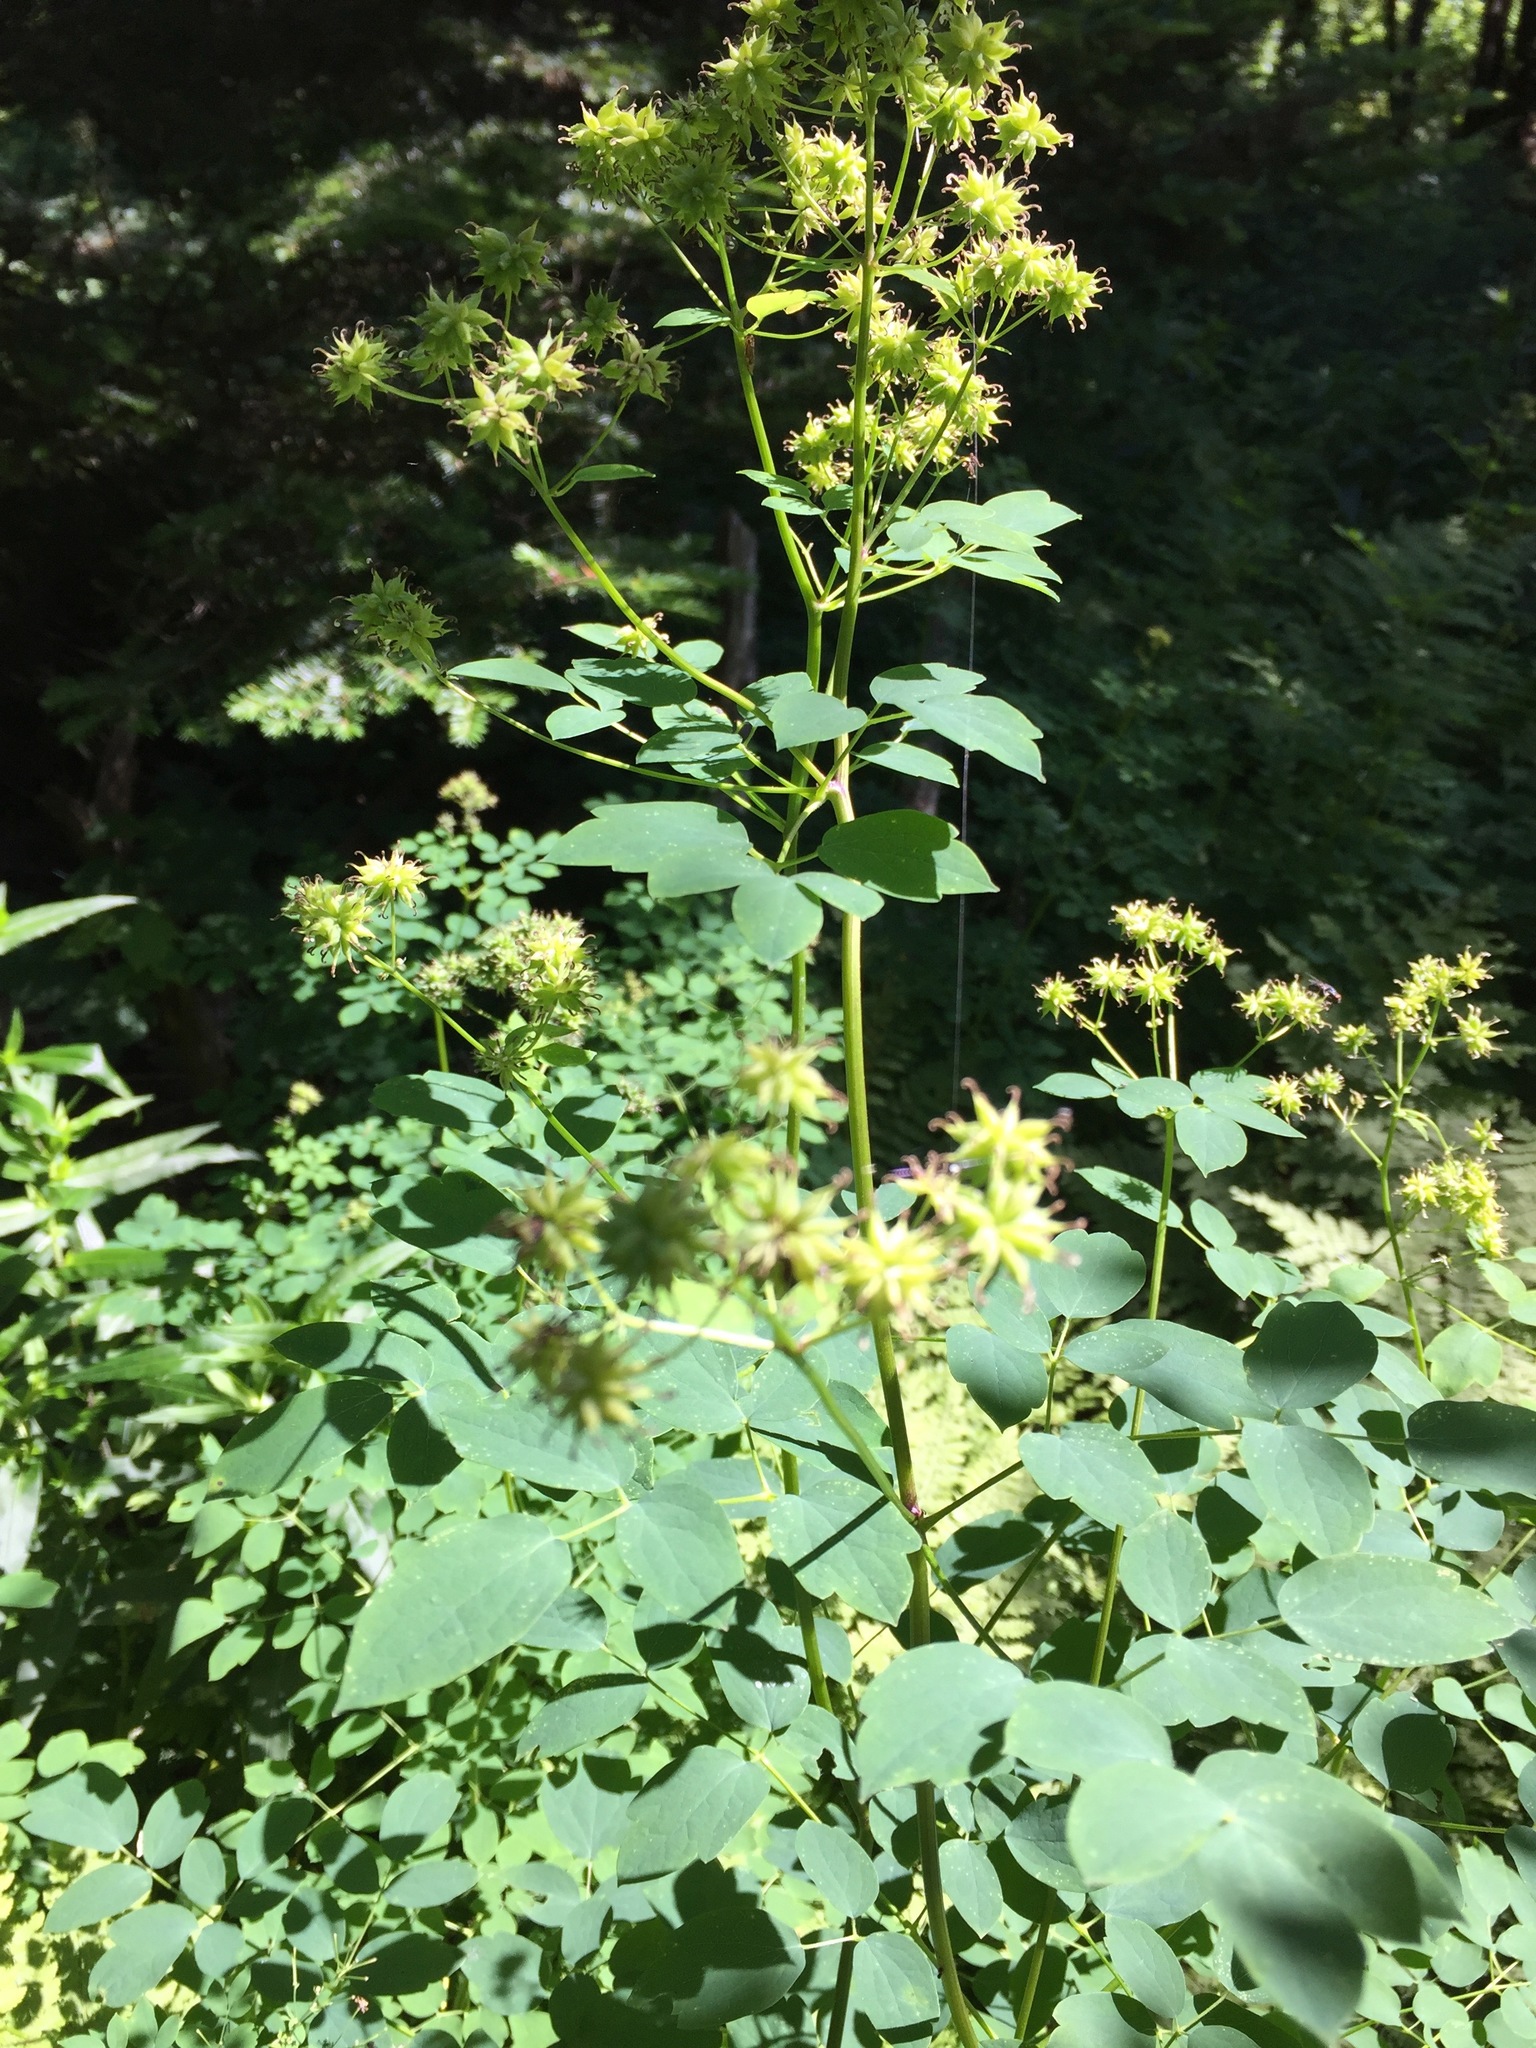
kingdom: Plantae
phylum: Tracheophyta
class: Magnoliopsida
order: Ranunculales
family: Ranunculaceae
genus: Thalictrum
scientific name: Thalictrum pubescens
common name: King-of-the-meadow
